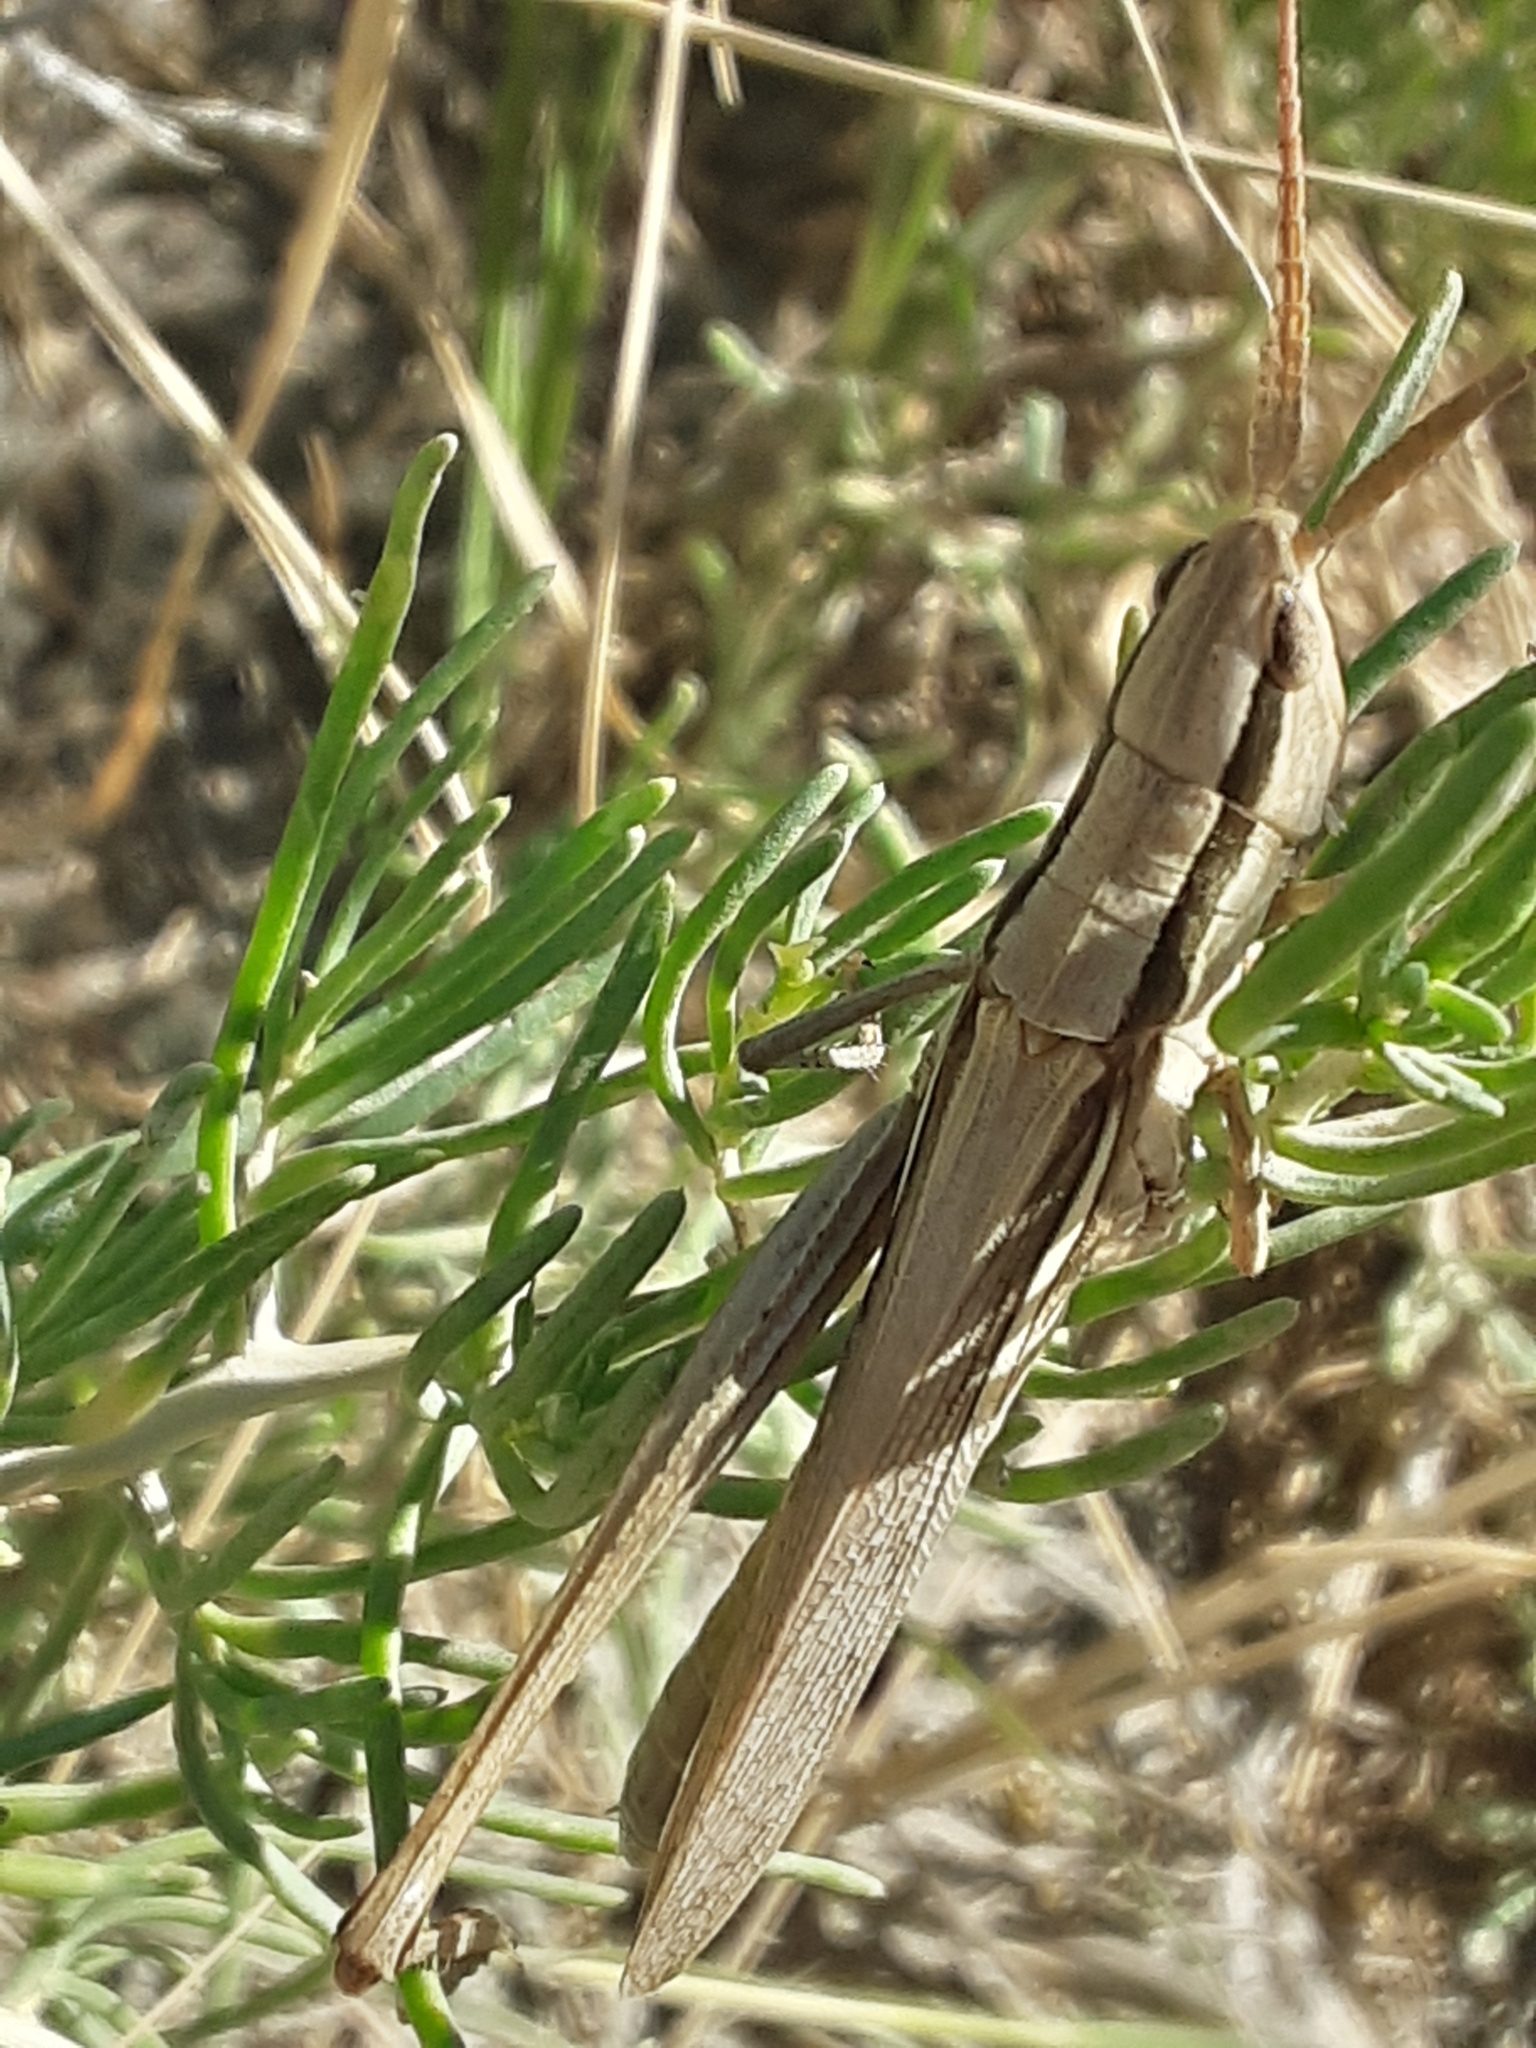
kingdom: Animalia
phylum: Arthropoda
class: Insecta
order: Orthoptera
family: Acrididae
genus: Mermiria
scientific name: Mermiria bivittata
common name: Two-striped mermiria grasshopper
